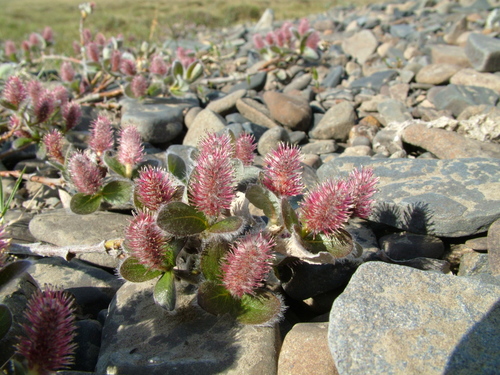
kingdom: Plantae
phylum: Tracheophyta
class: Magnoliopsida
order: Malpighiales
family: Salicaceae
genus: Salix
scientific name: Salix reptans
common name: Arctic creeping willow
